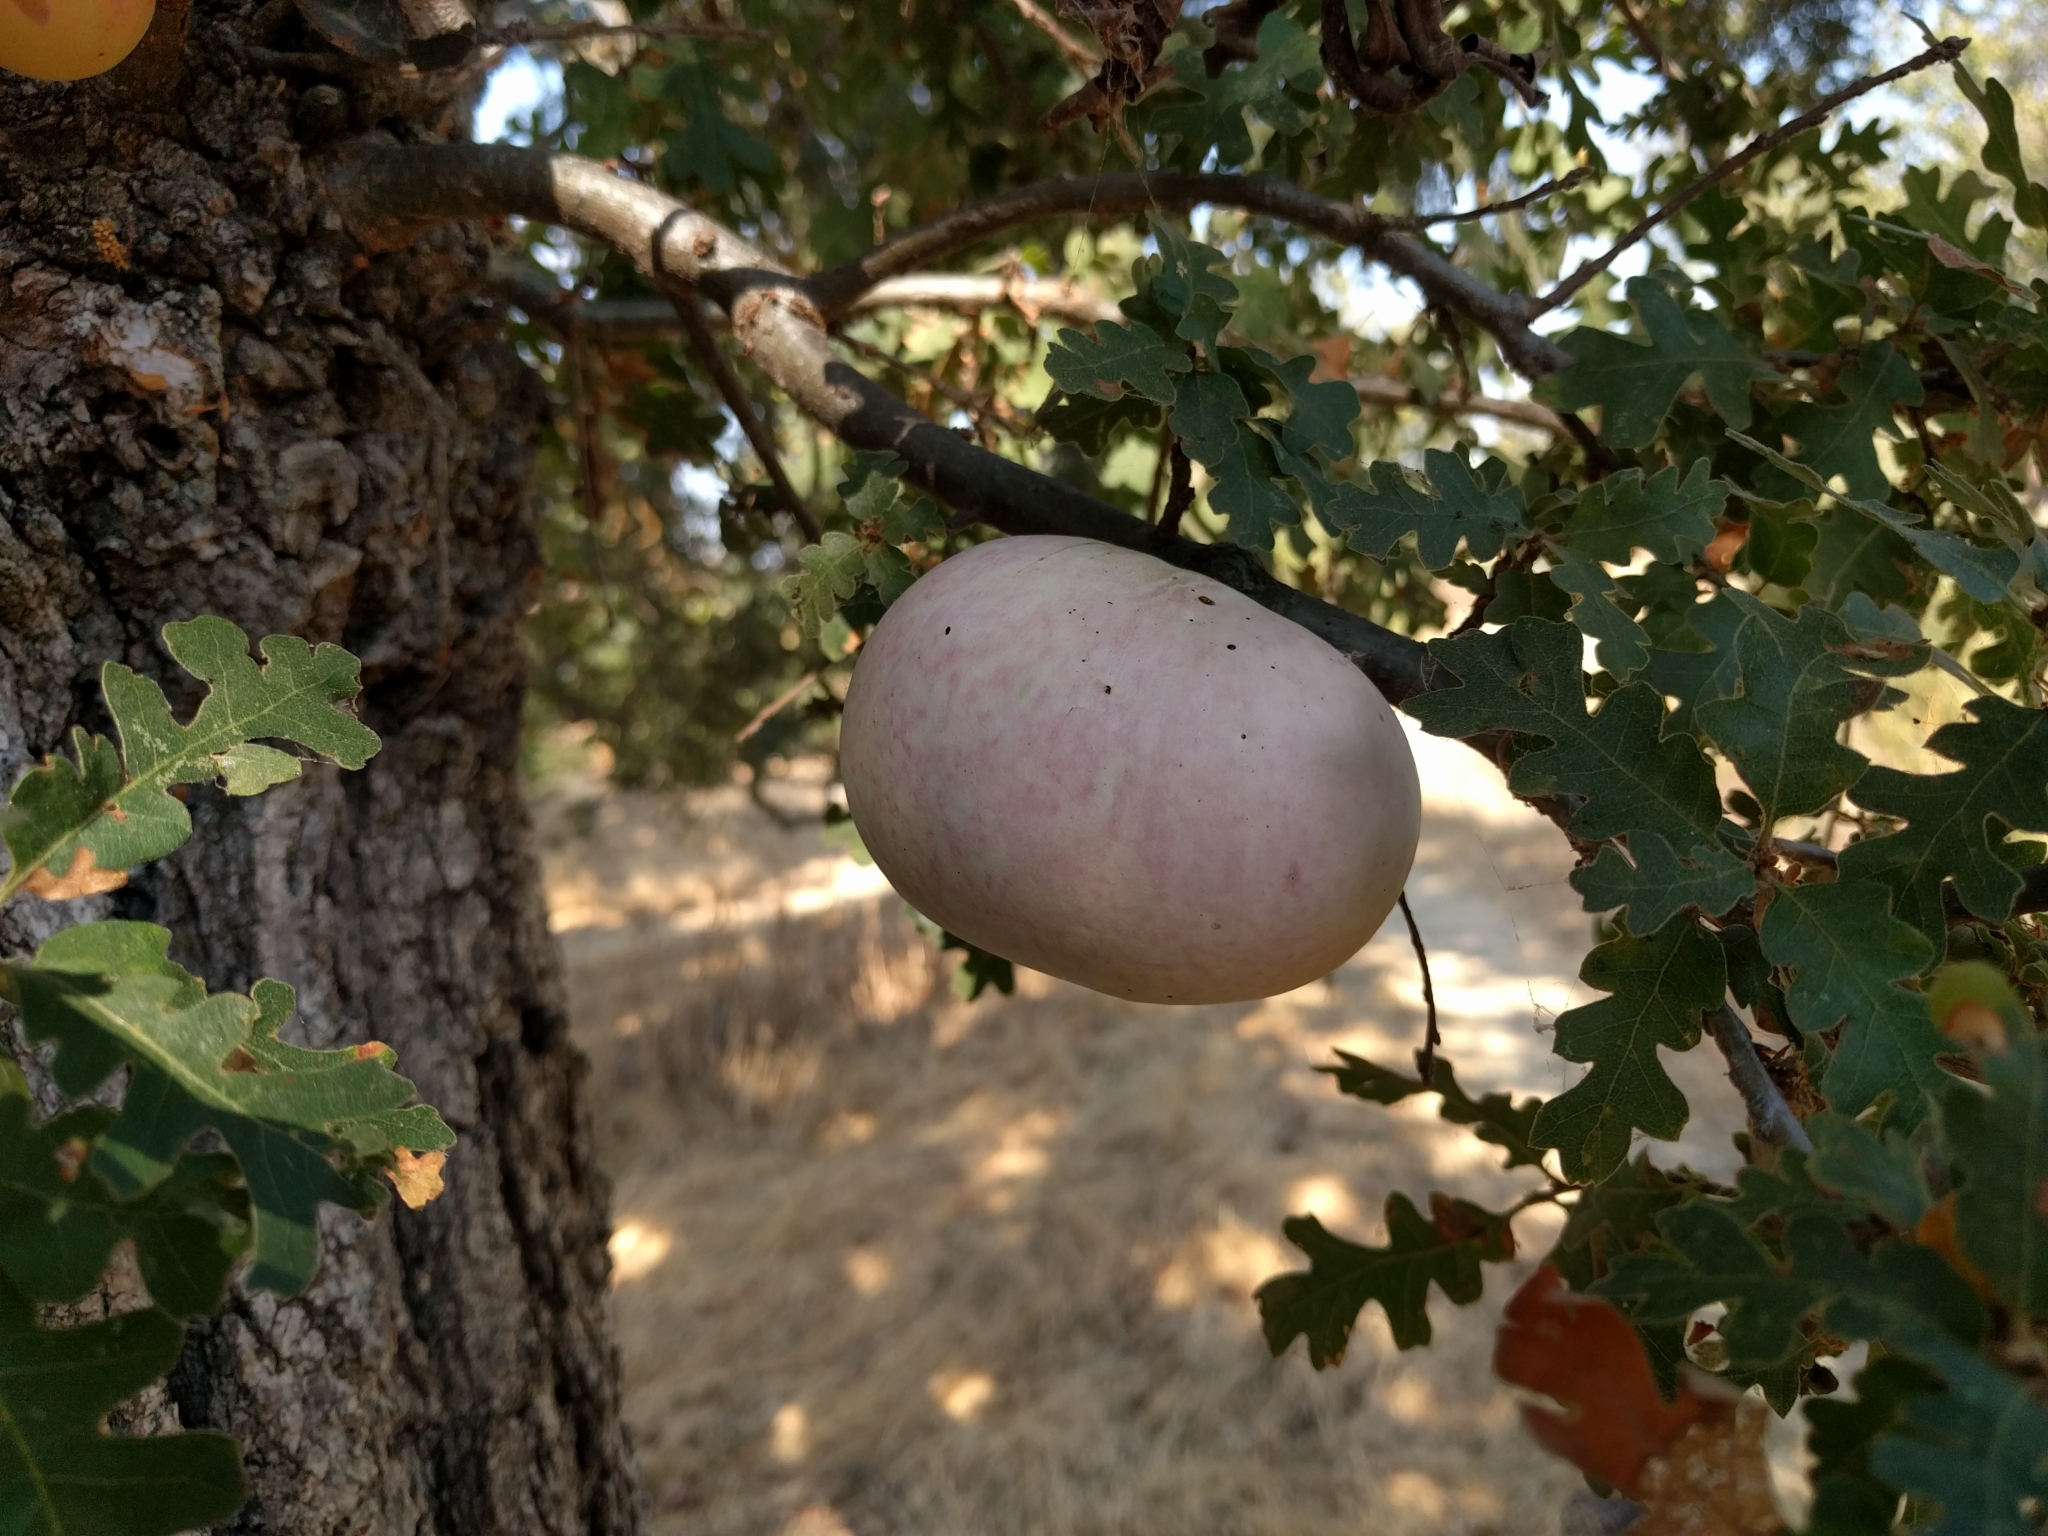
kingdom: Animalia
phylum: Arthropoda
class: Insecta
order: Hymenoptera
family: Cynipidae
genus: Andricus
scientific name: Andricus quercuscalifornicus
